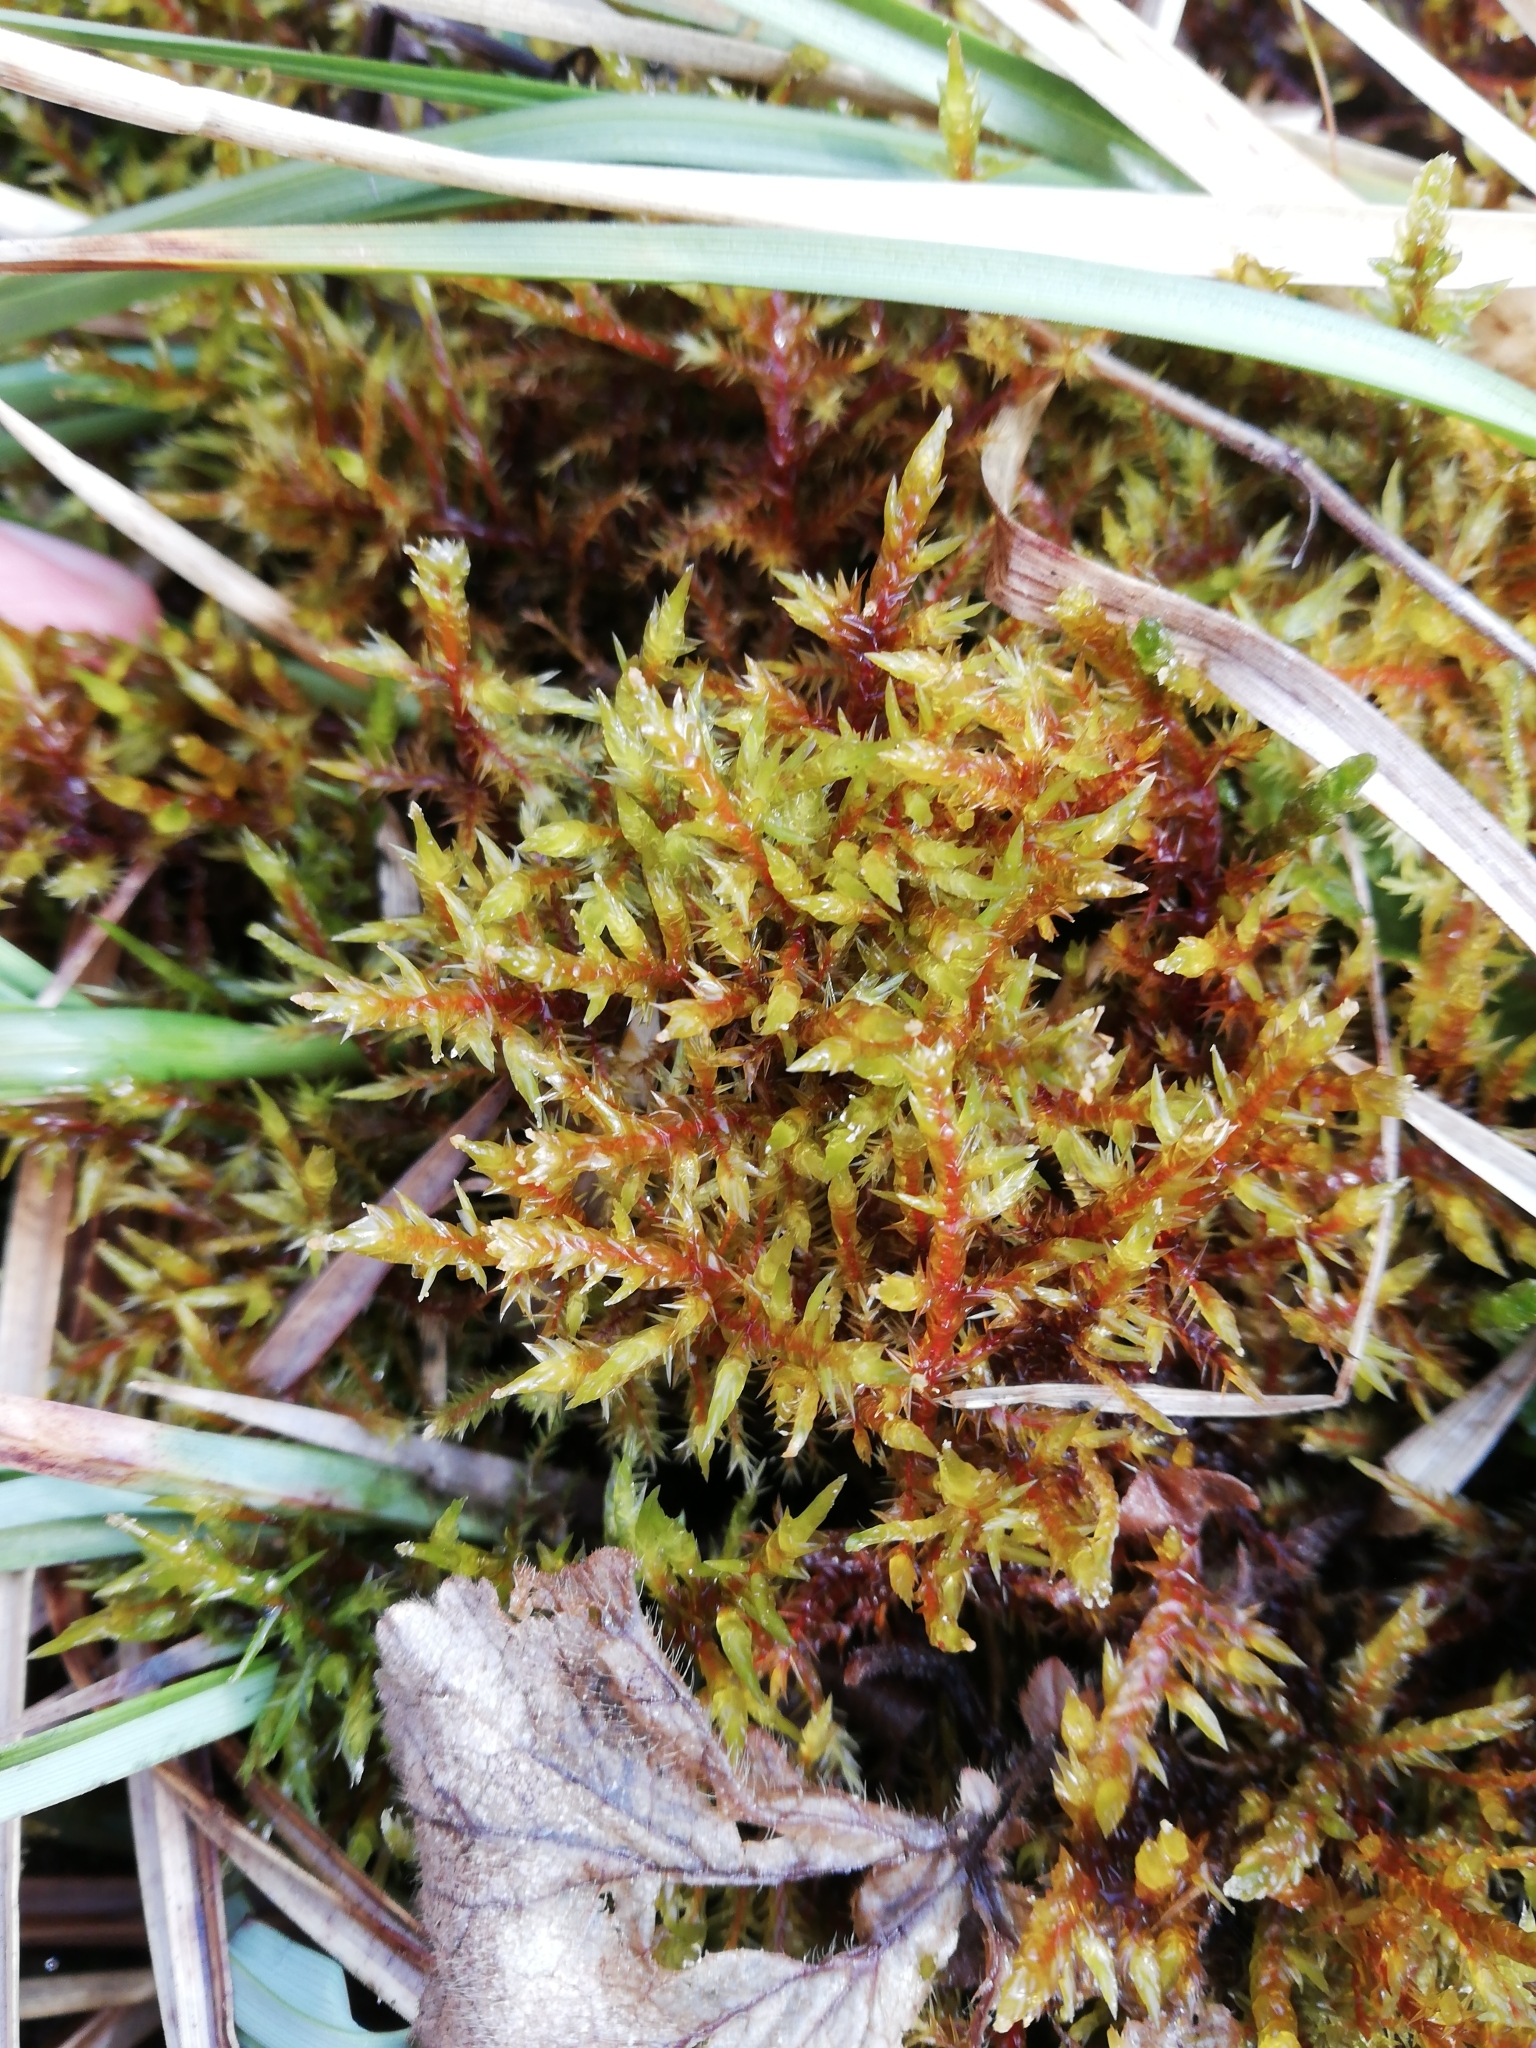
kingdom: Plantae
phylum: Bryophyta
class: Bryopsida
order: Hypnales
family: Pylaisiaceae
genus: Calliergonella
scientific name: Calliergonella cuspidata
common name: Common large wetland moss
